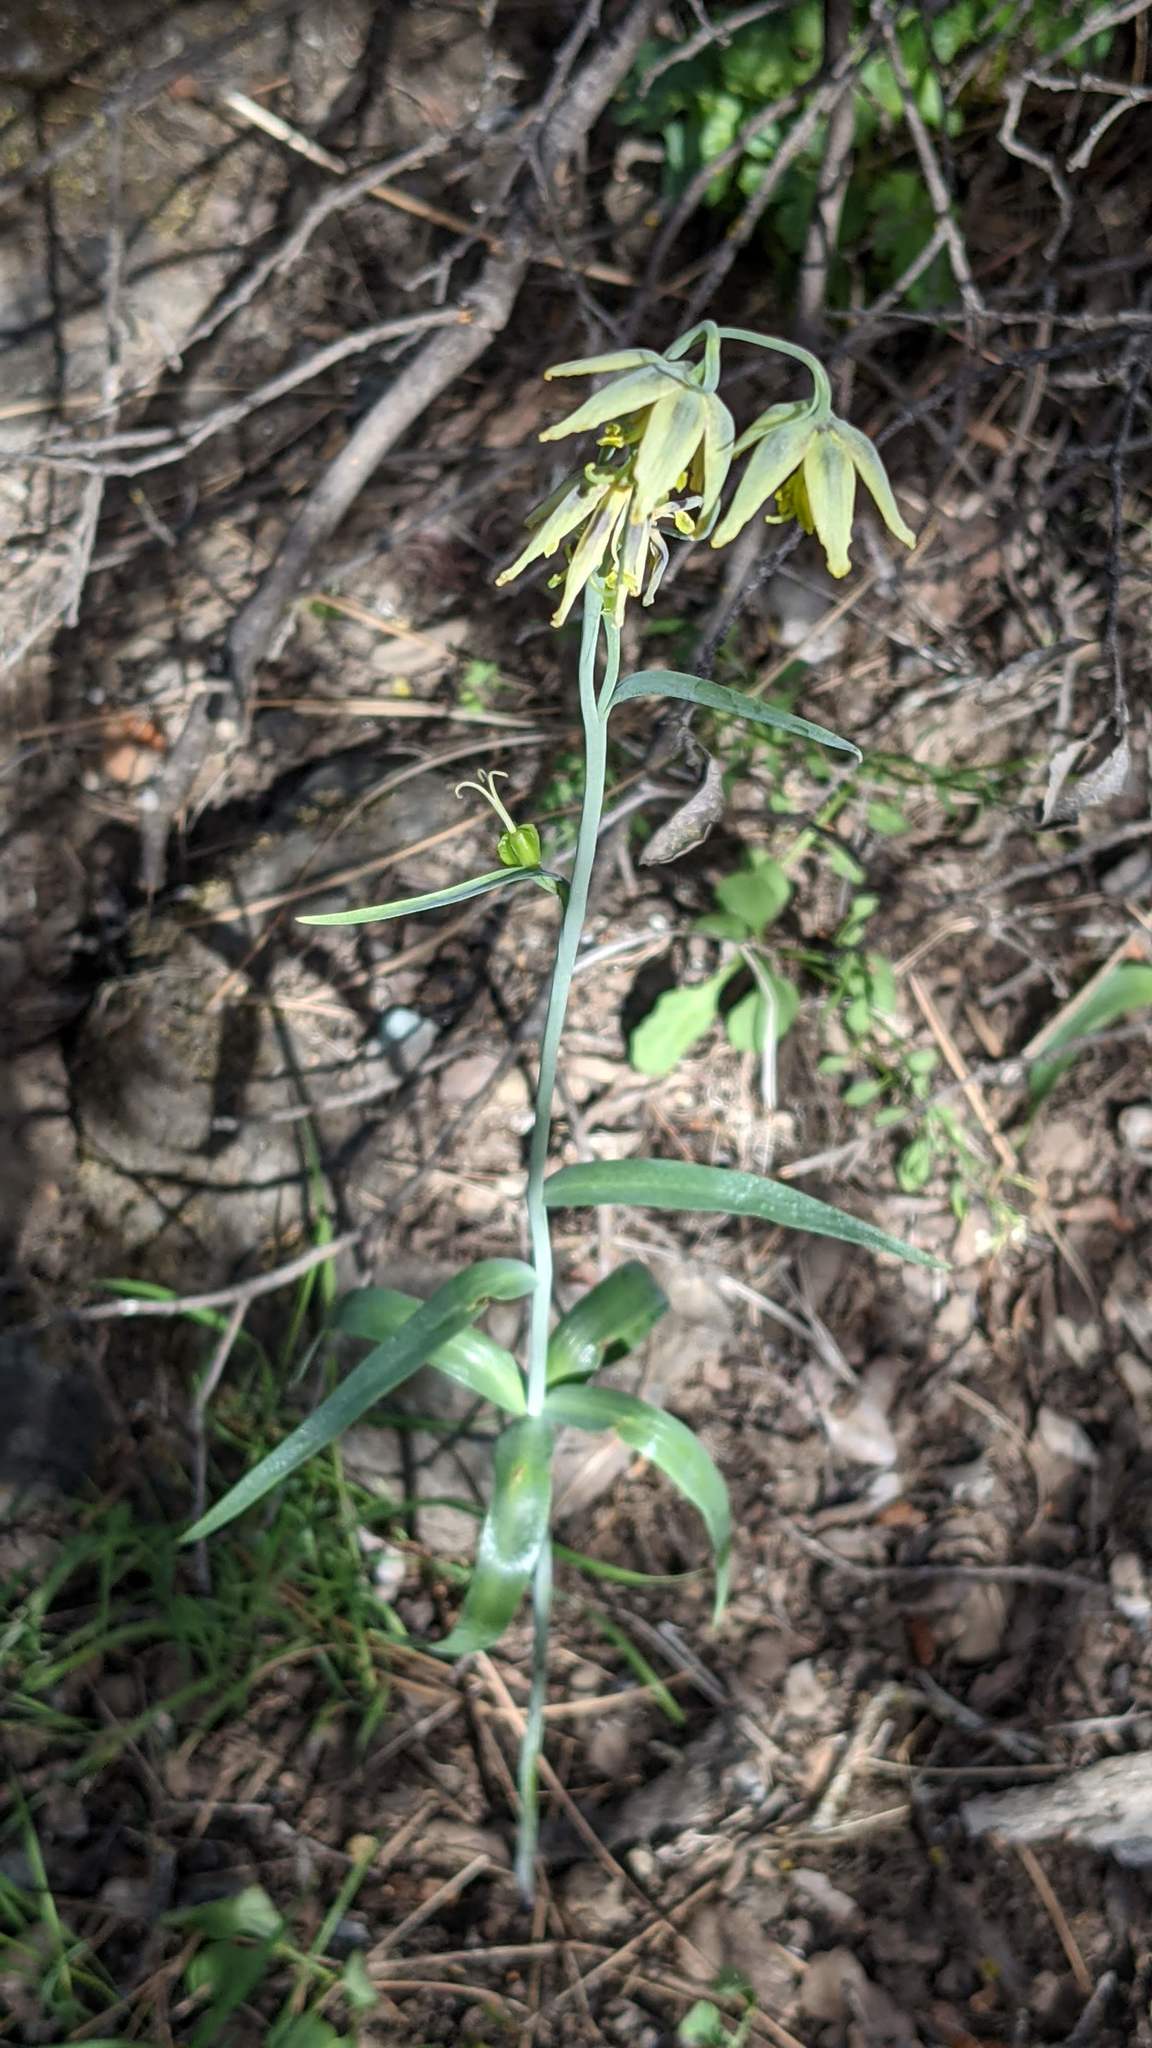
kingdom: Plantae
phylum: Tracheophyta
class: Liliopsida
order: Liliales
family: Liliaceae
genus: Fritillaria
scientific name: Fritillaria viridea
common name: San benito fritillary
